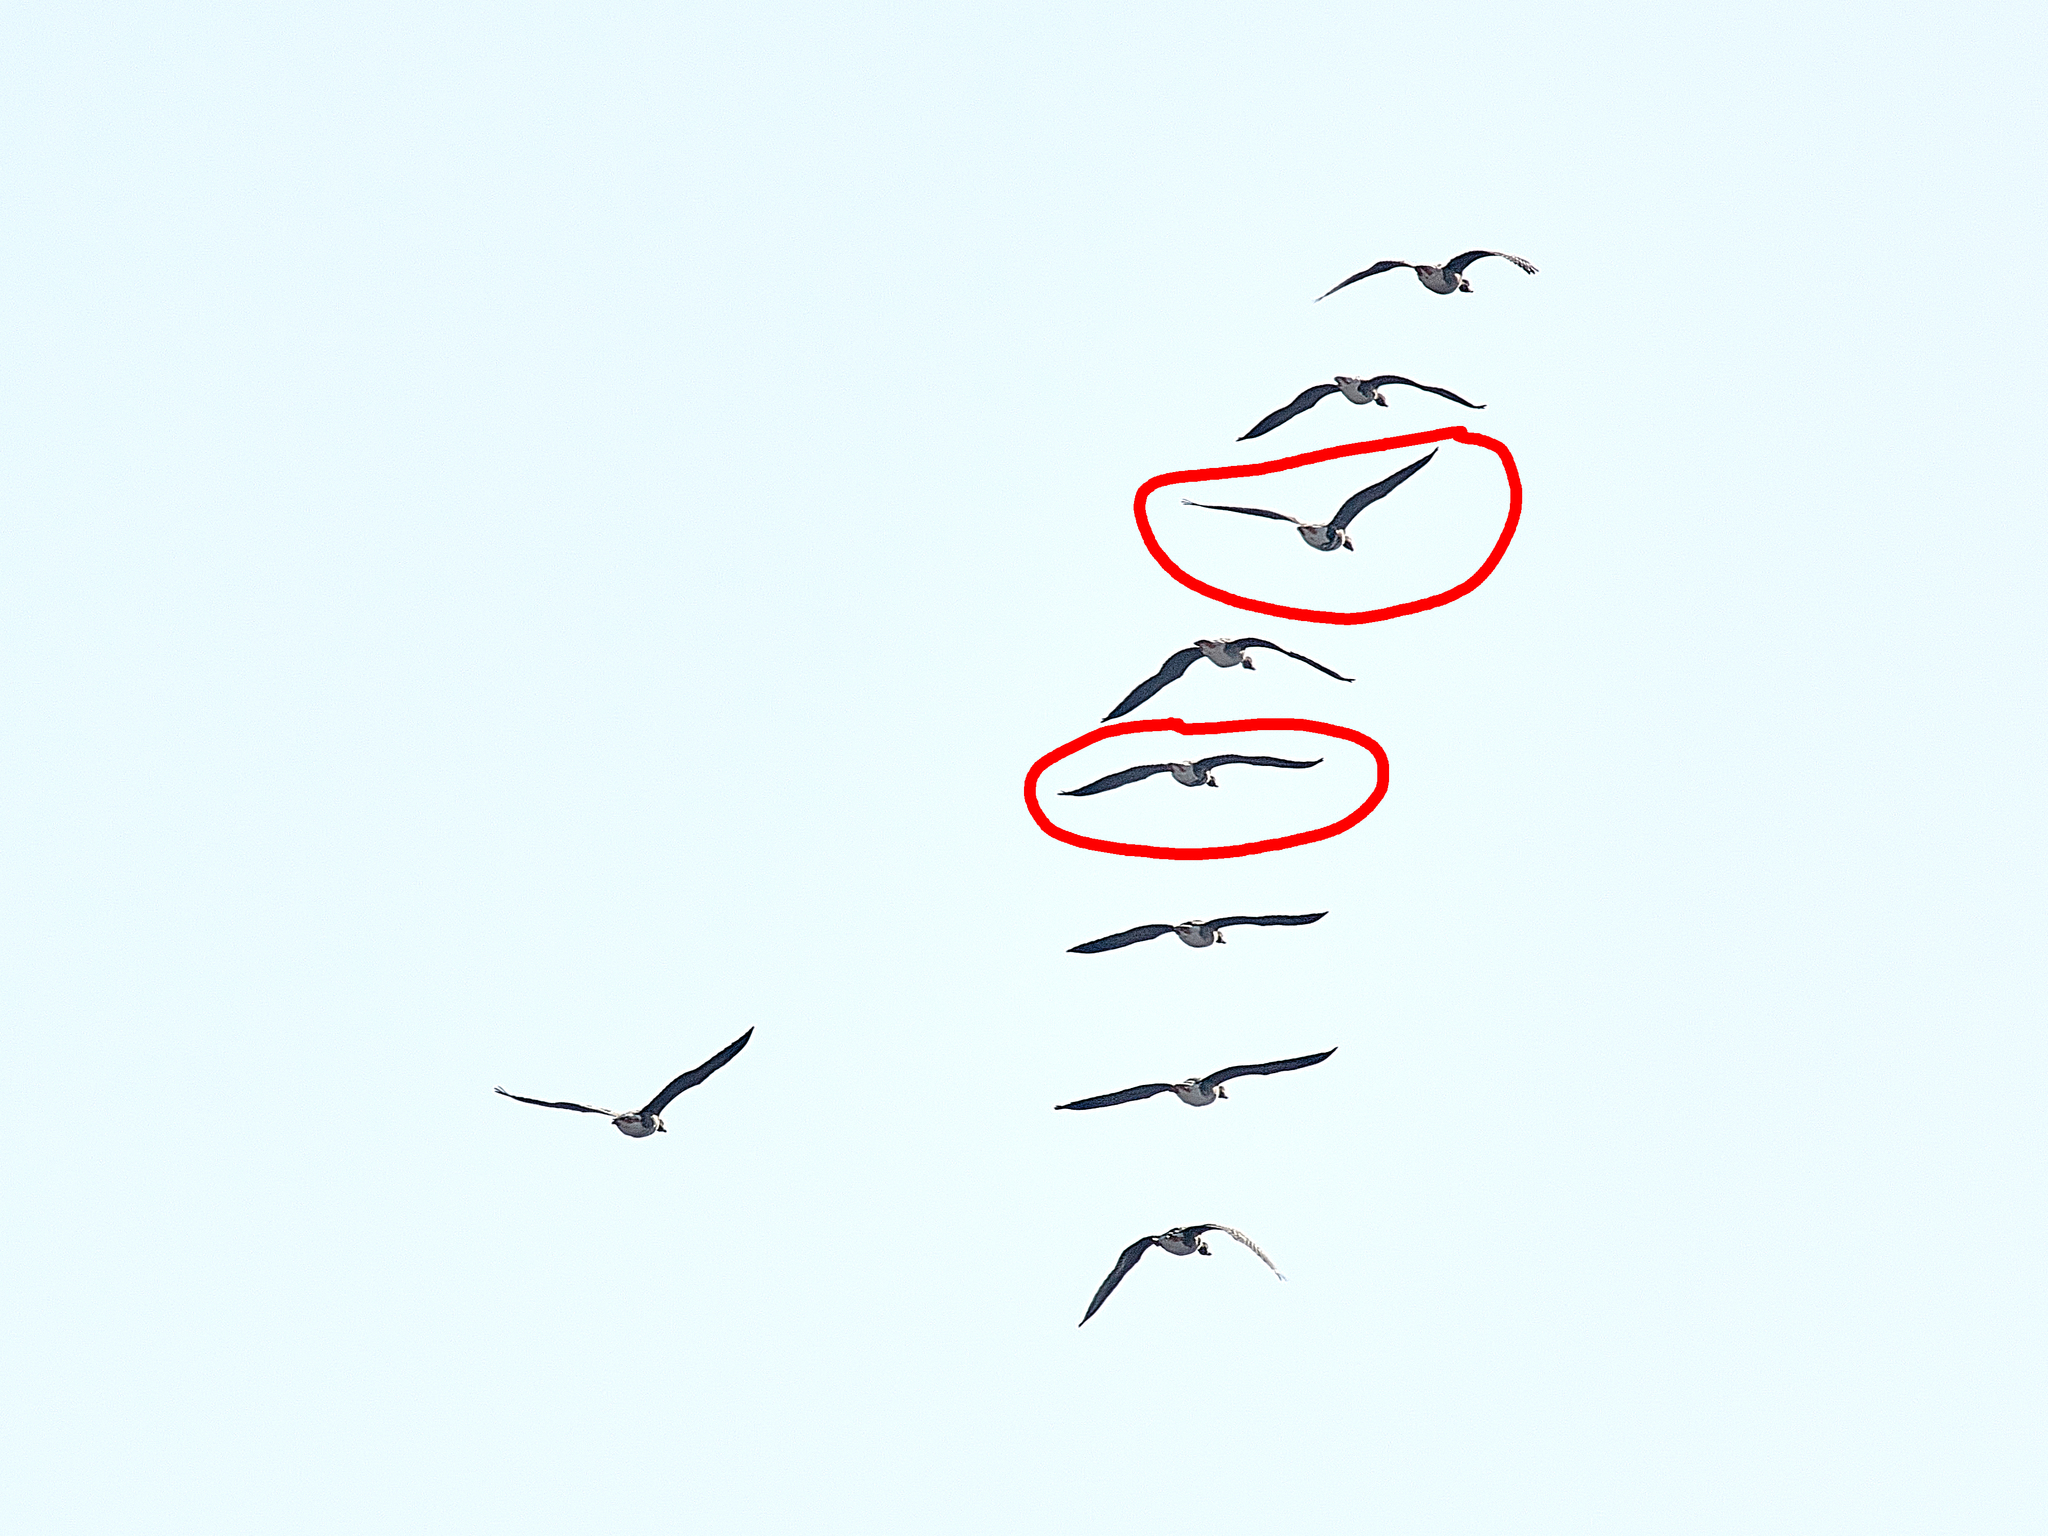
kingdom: Animalia
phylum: Chordata
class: Aves
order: Anseriformes
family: Anatidae
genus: Anser
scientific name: Anser albifrons
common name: Greater white-fronted goose
